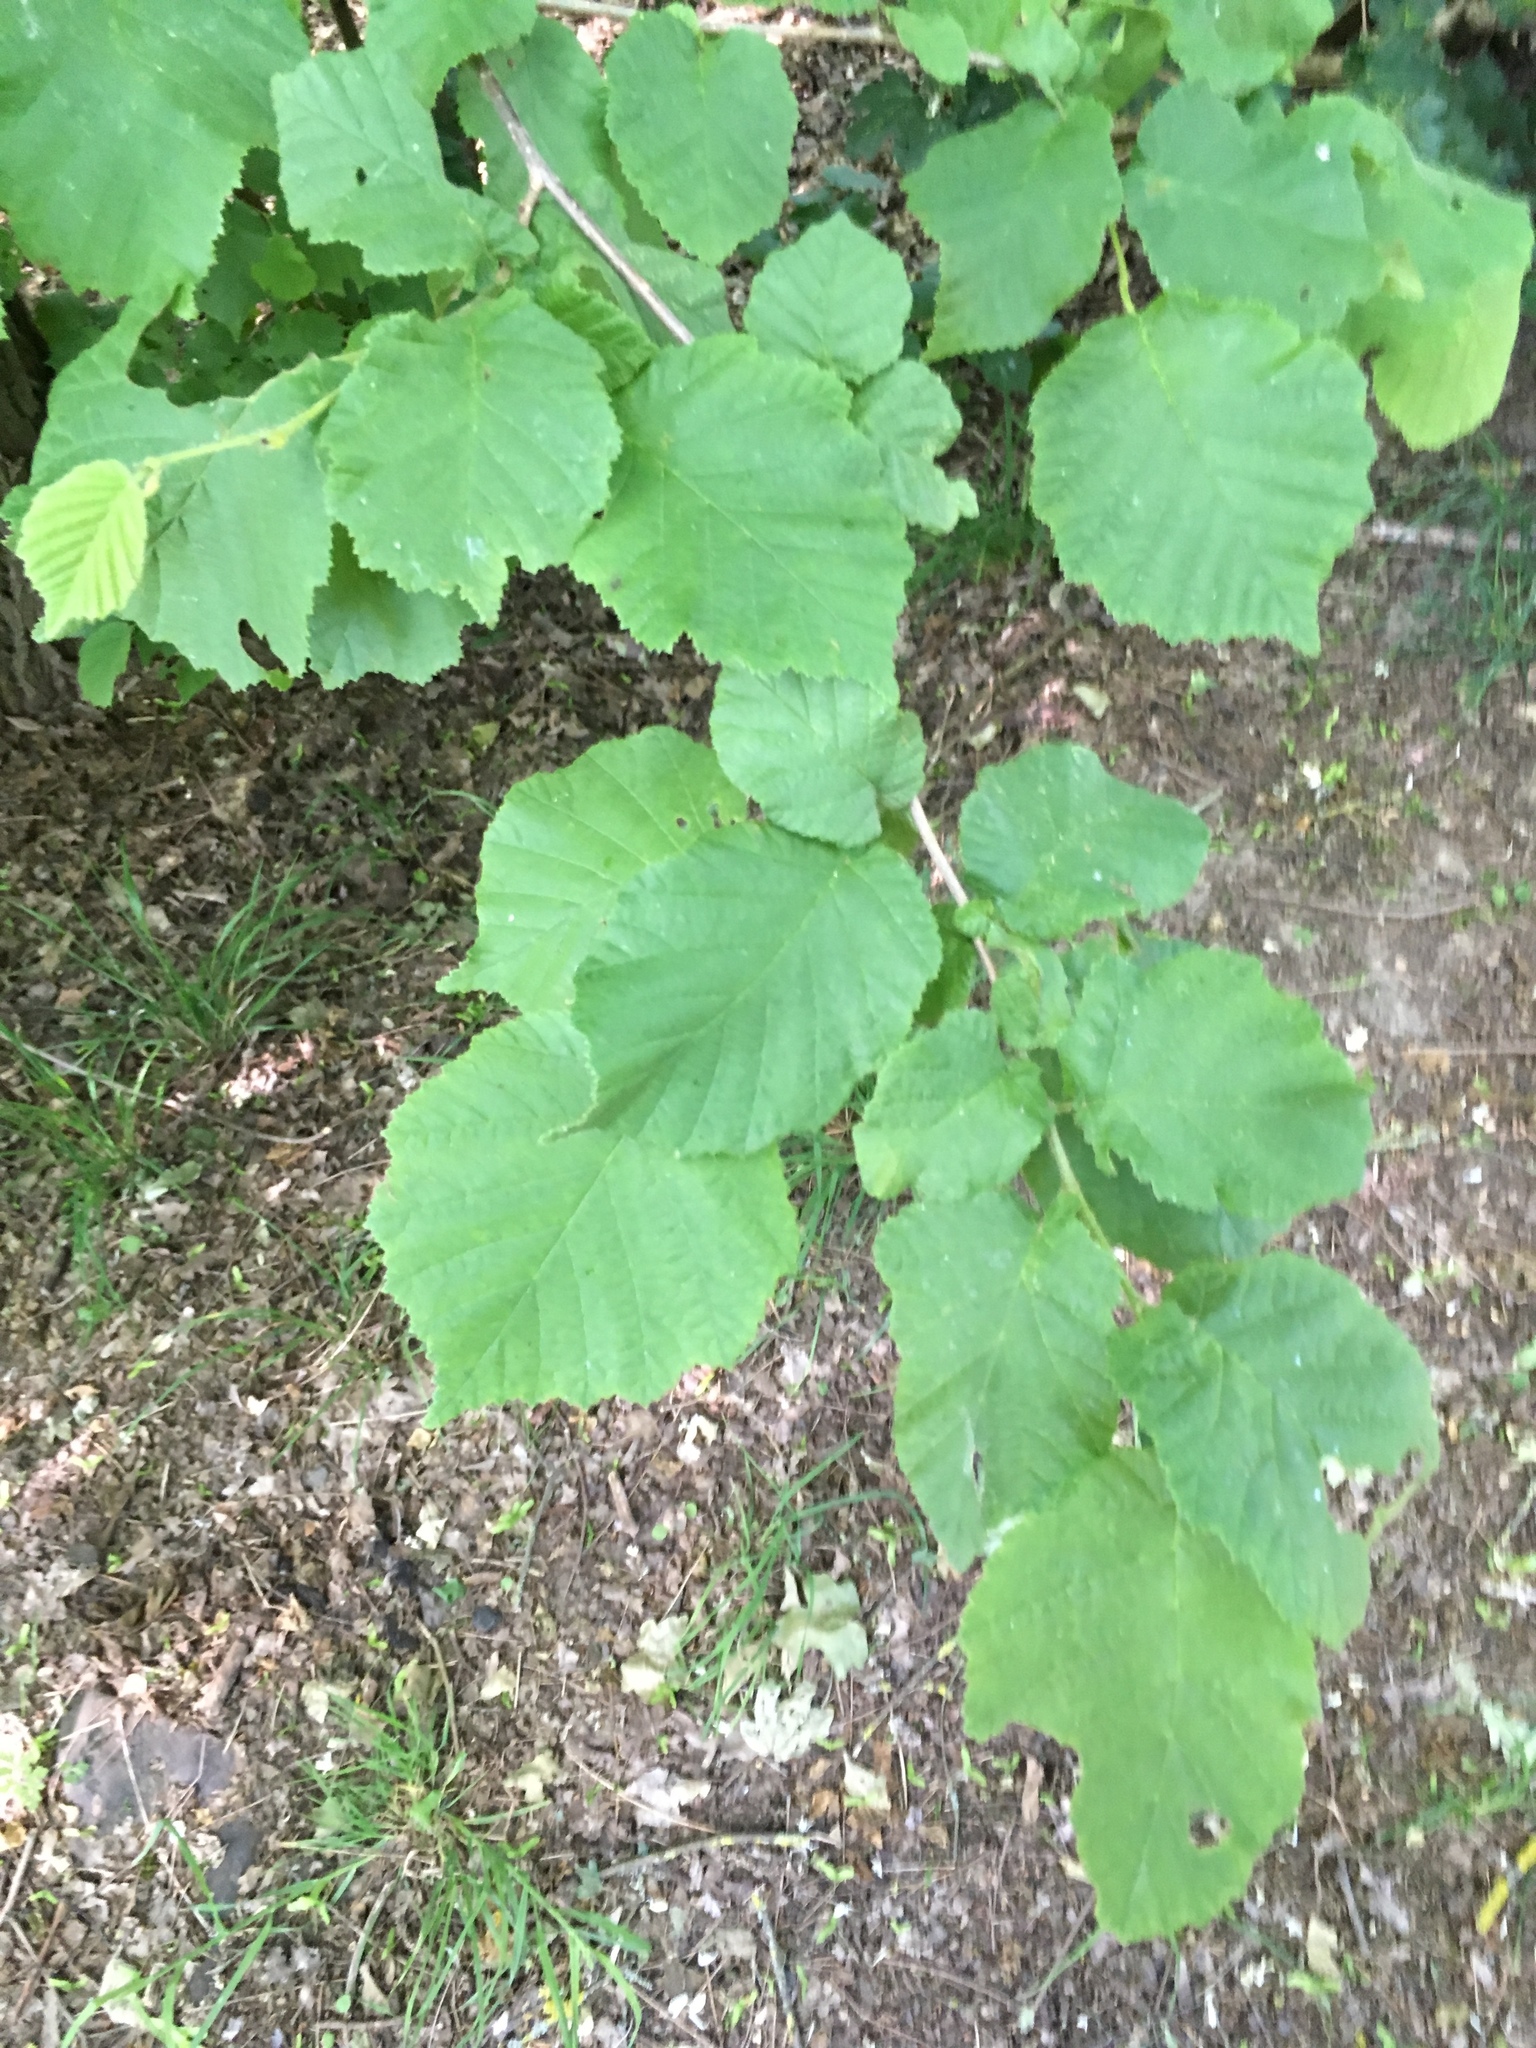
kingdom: Plantae
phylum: Tracheophyta
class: Magnoliopsida
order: Fagales
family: Betulaceae
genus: Corylus
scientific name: Corylus avellana
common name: European hazel
